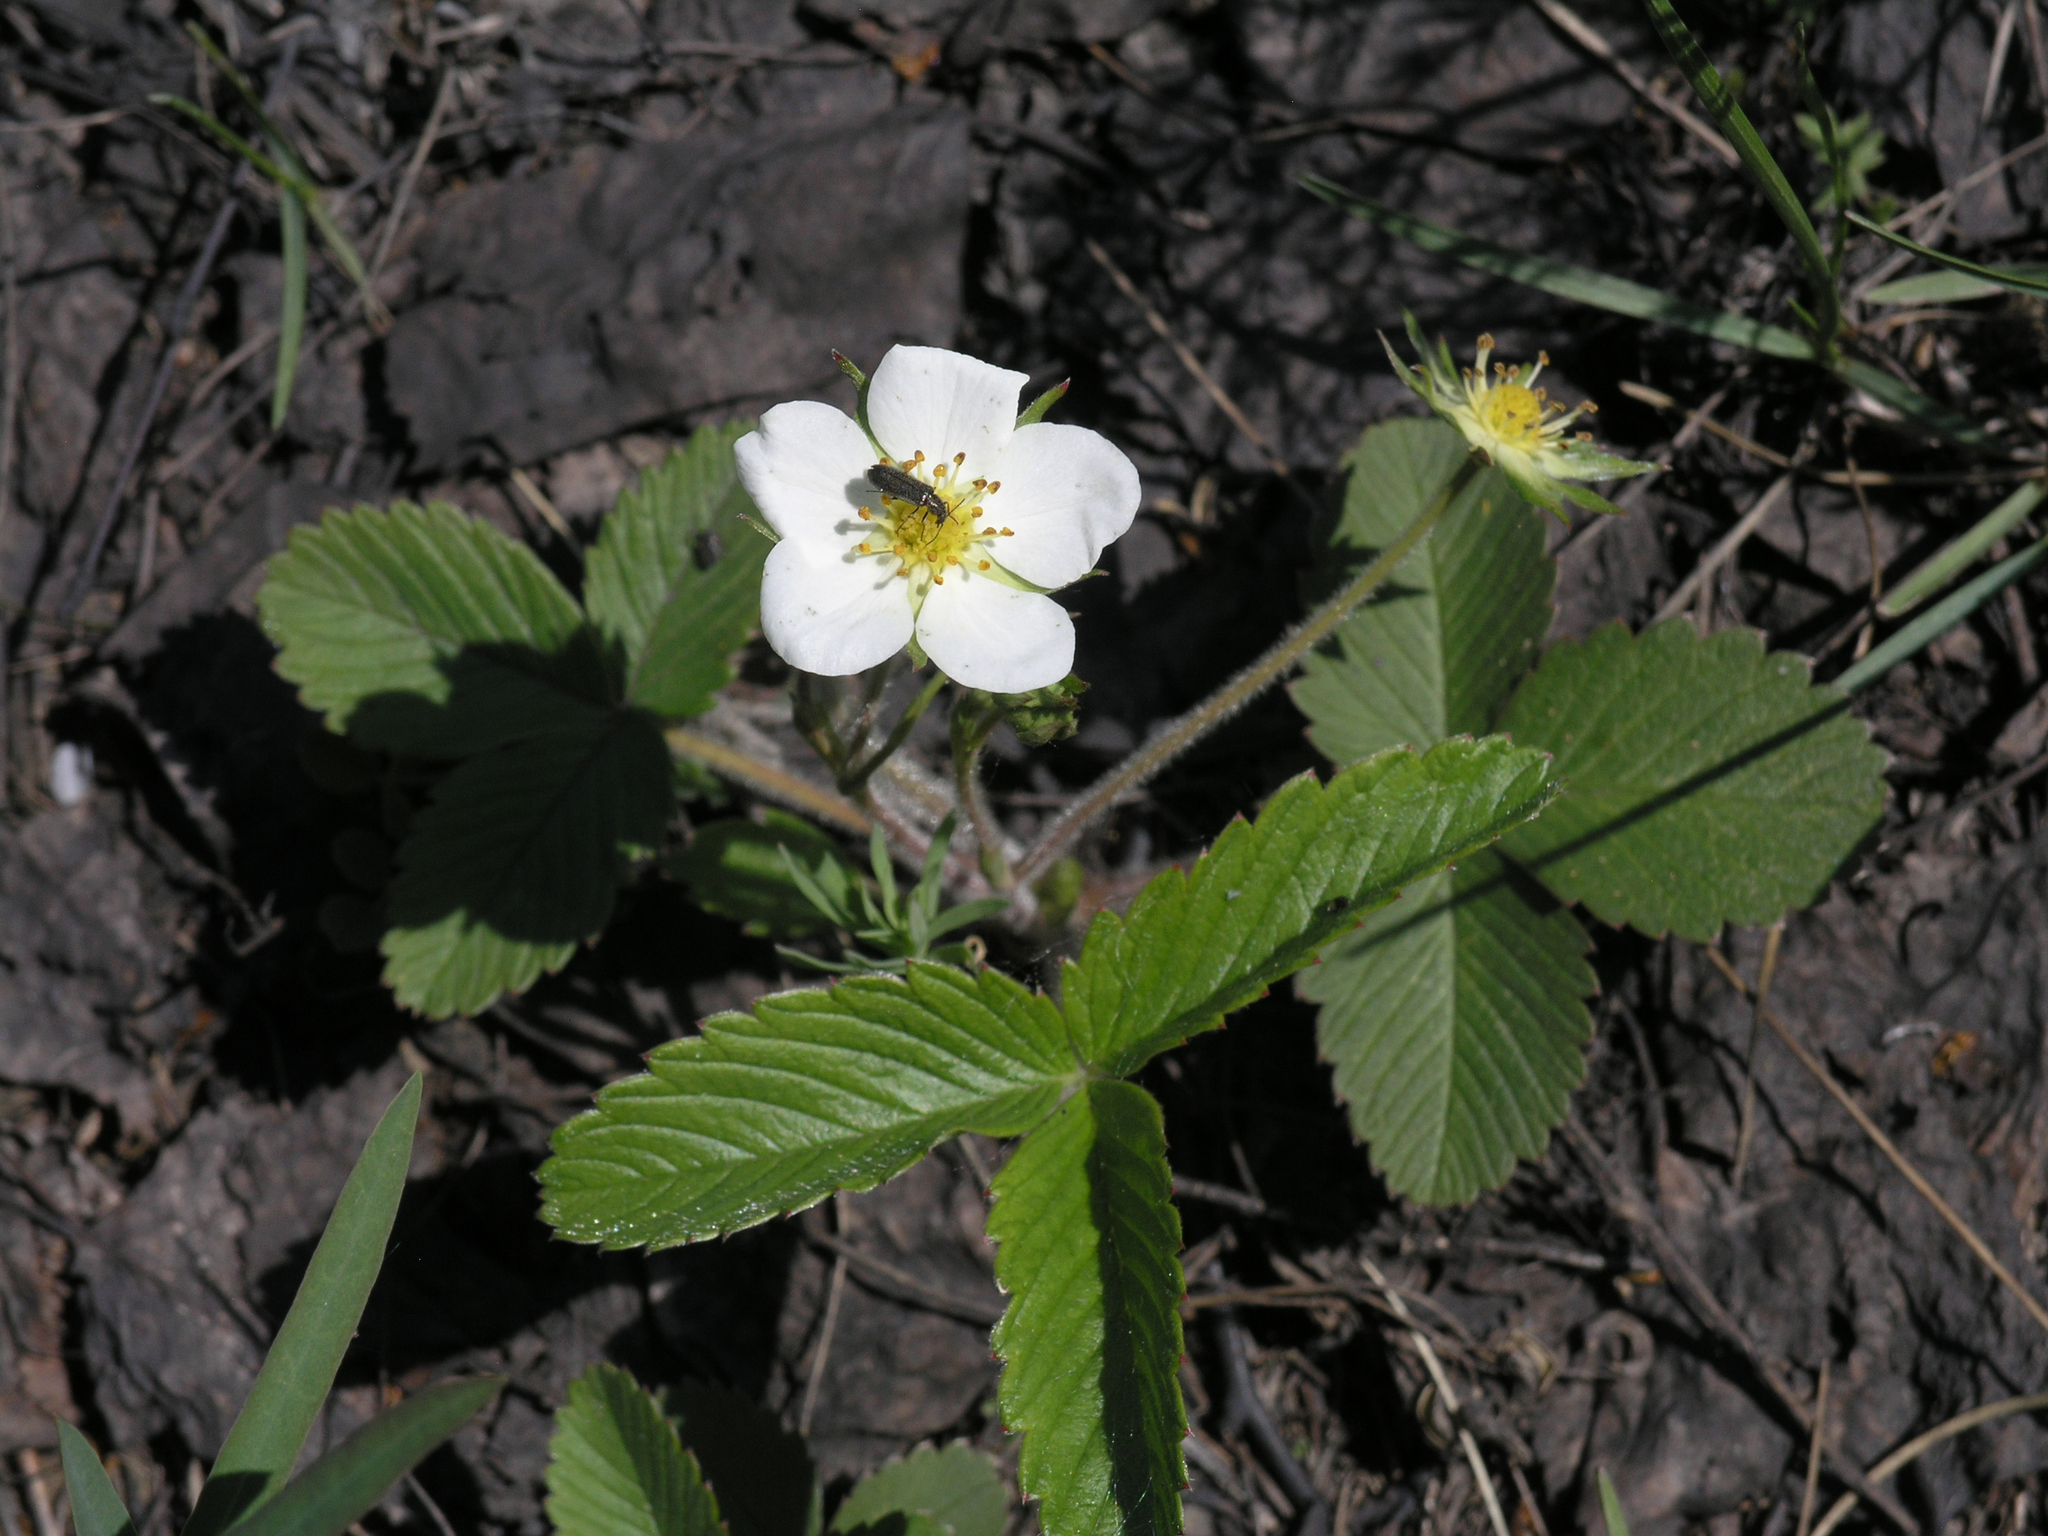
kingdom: Plantae
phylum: Tracheophyta
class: Magnoliopsida
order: Rosales
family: Rosaceae
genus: Fragaria
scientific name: Fragaria viridis
